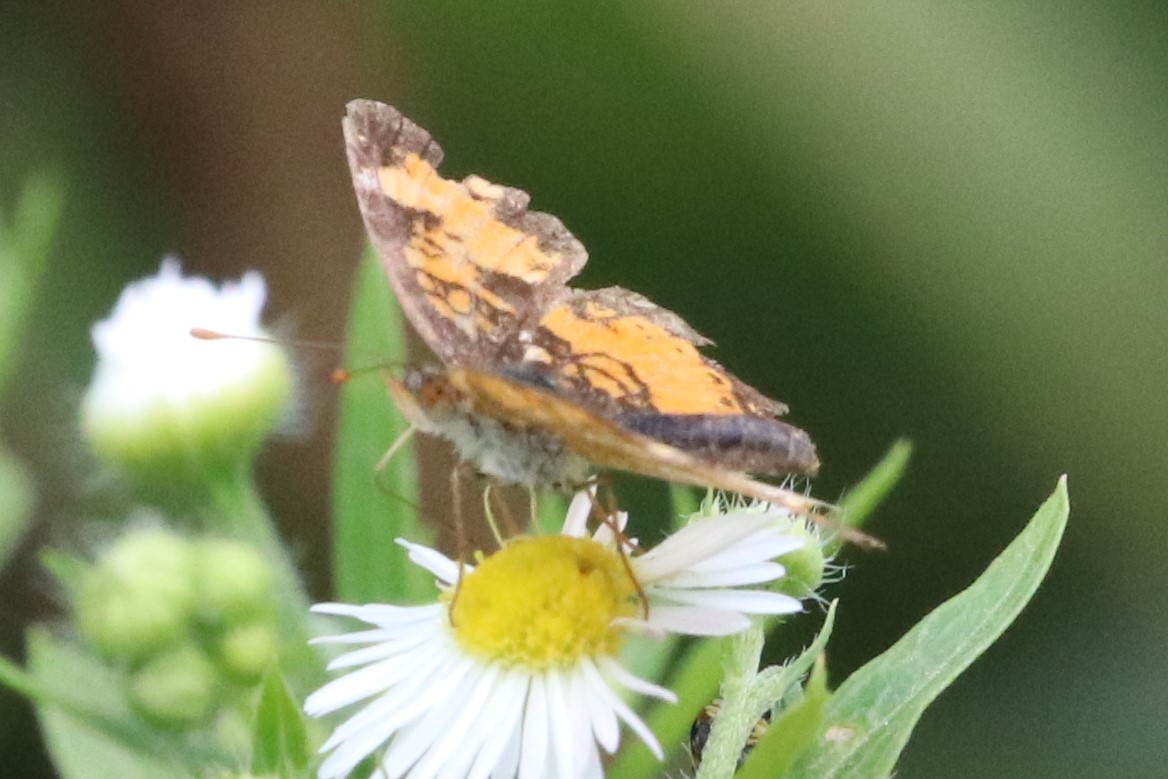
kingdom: Animalia
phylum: Arthropoda
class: Insecta
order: Lepidoptera
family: Nymphalidae
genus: Phyciodes
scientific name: Phyciodes tharos
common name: Pearl crescent
